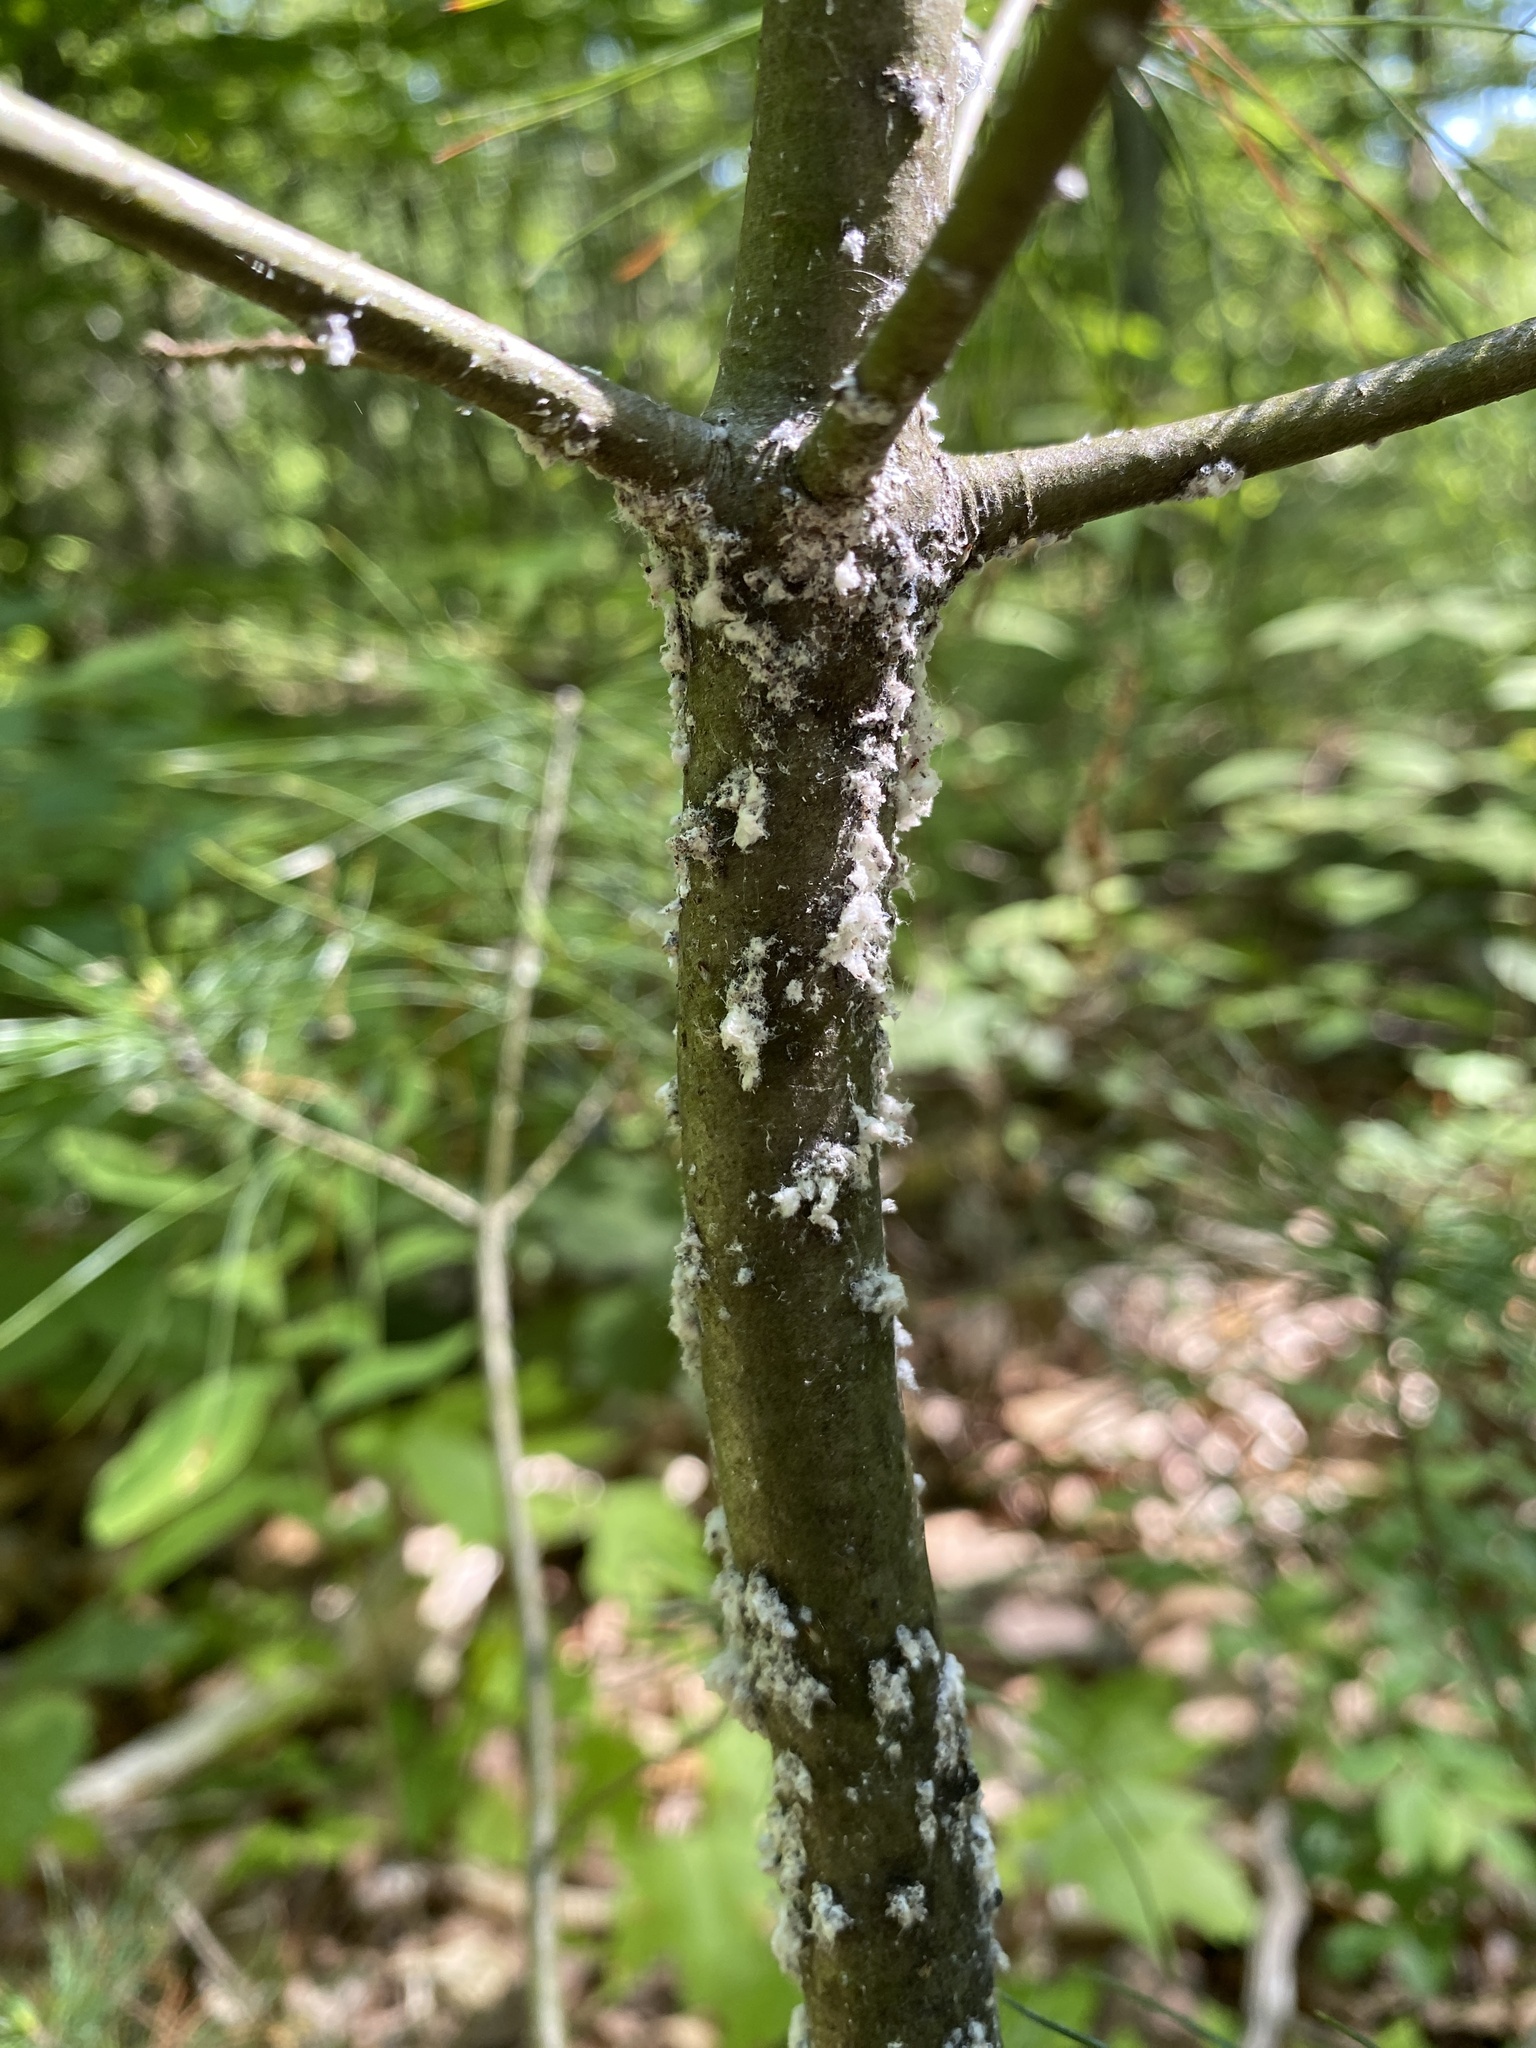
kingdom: Animalia
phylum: Arthropoda
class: Insecta
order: Hemiptera
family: Adelgidae
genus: Pineus
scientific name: Pineus strobi
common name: Pine bark adelgid
